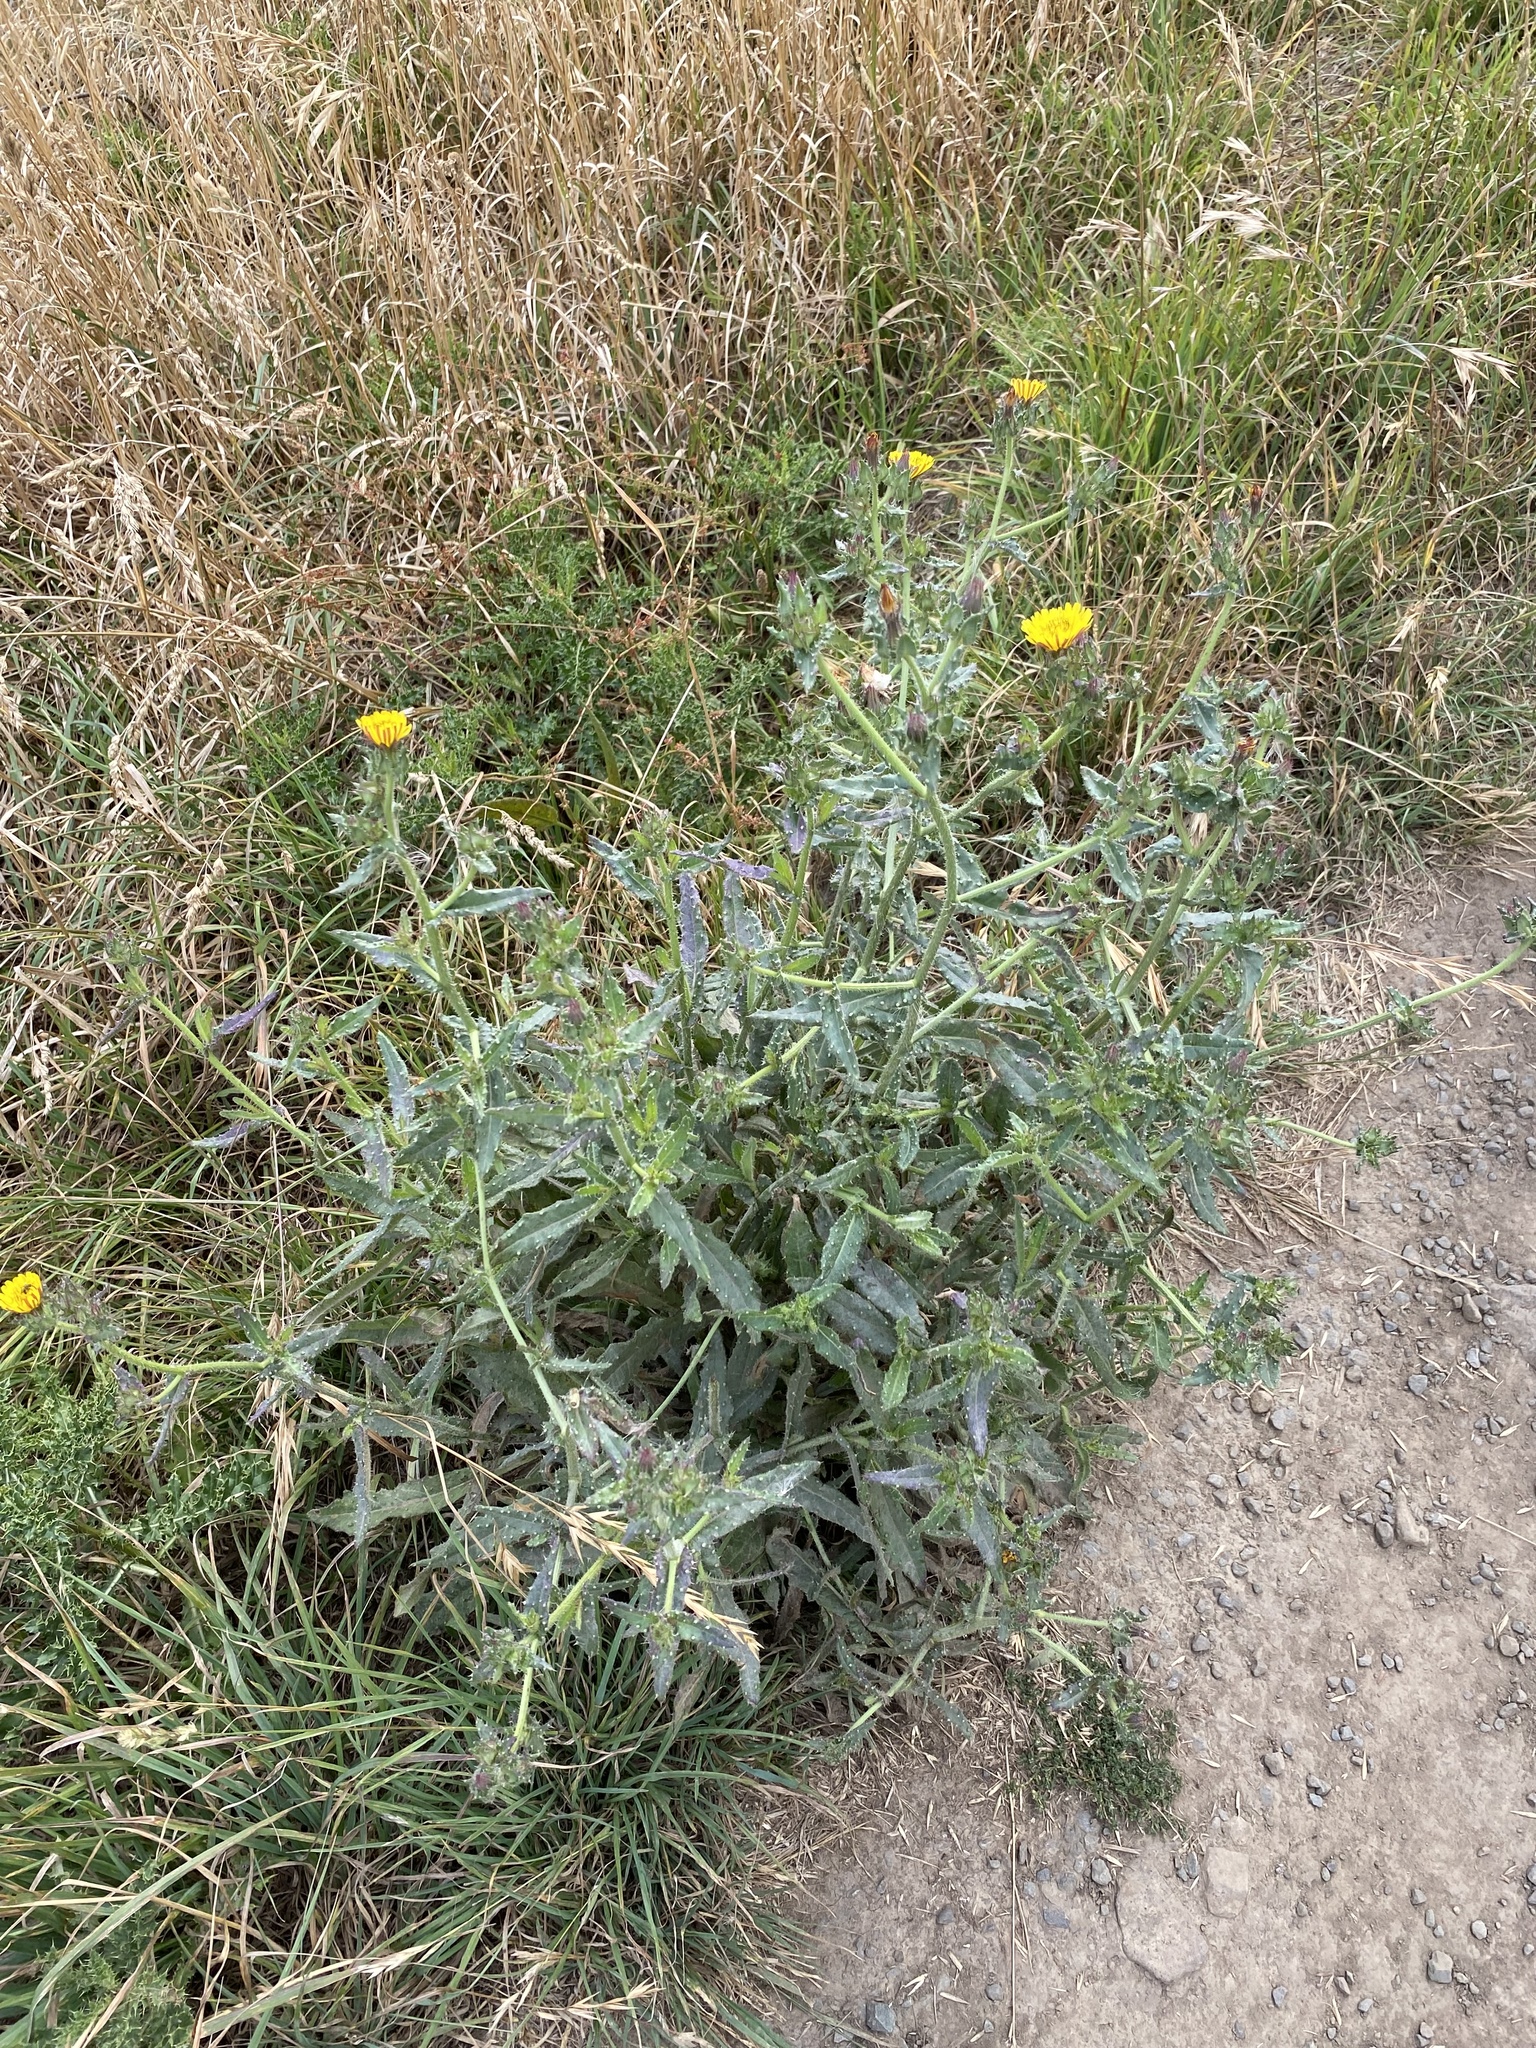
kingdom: Plantae
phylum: Tracheophyta
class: Magnoliopsida
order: Asterales
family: Asteraceae
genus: Helminthotheca
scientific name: Helminthotheca echioides
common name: Ox-tongue
